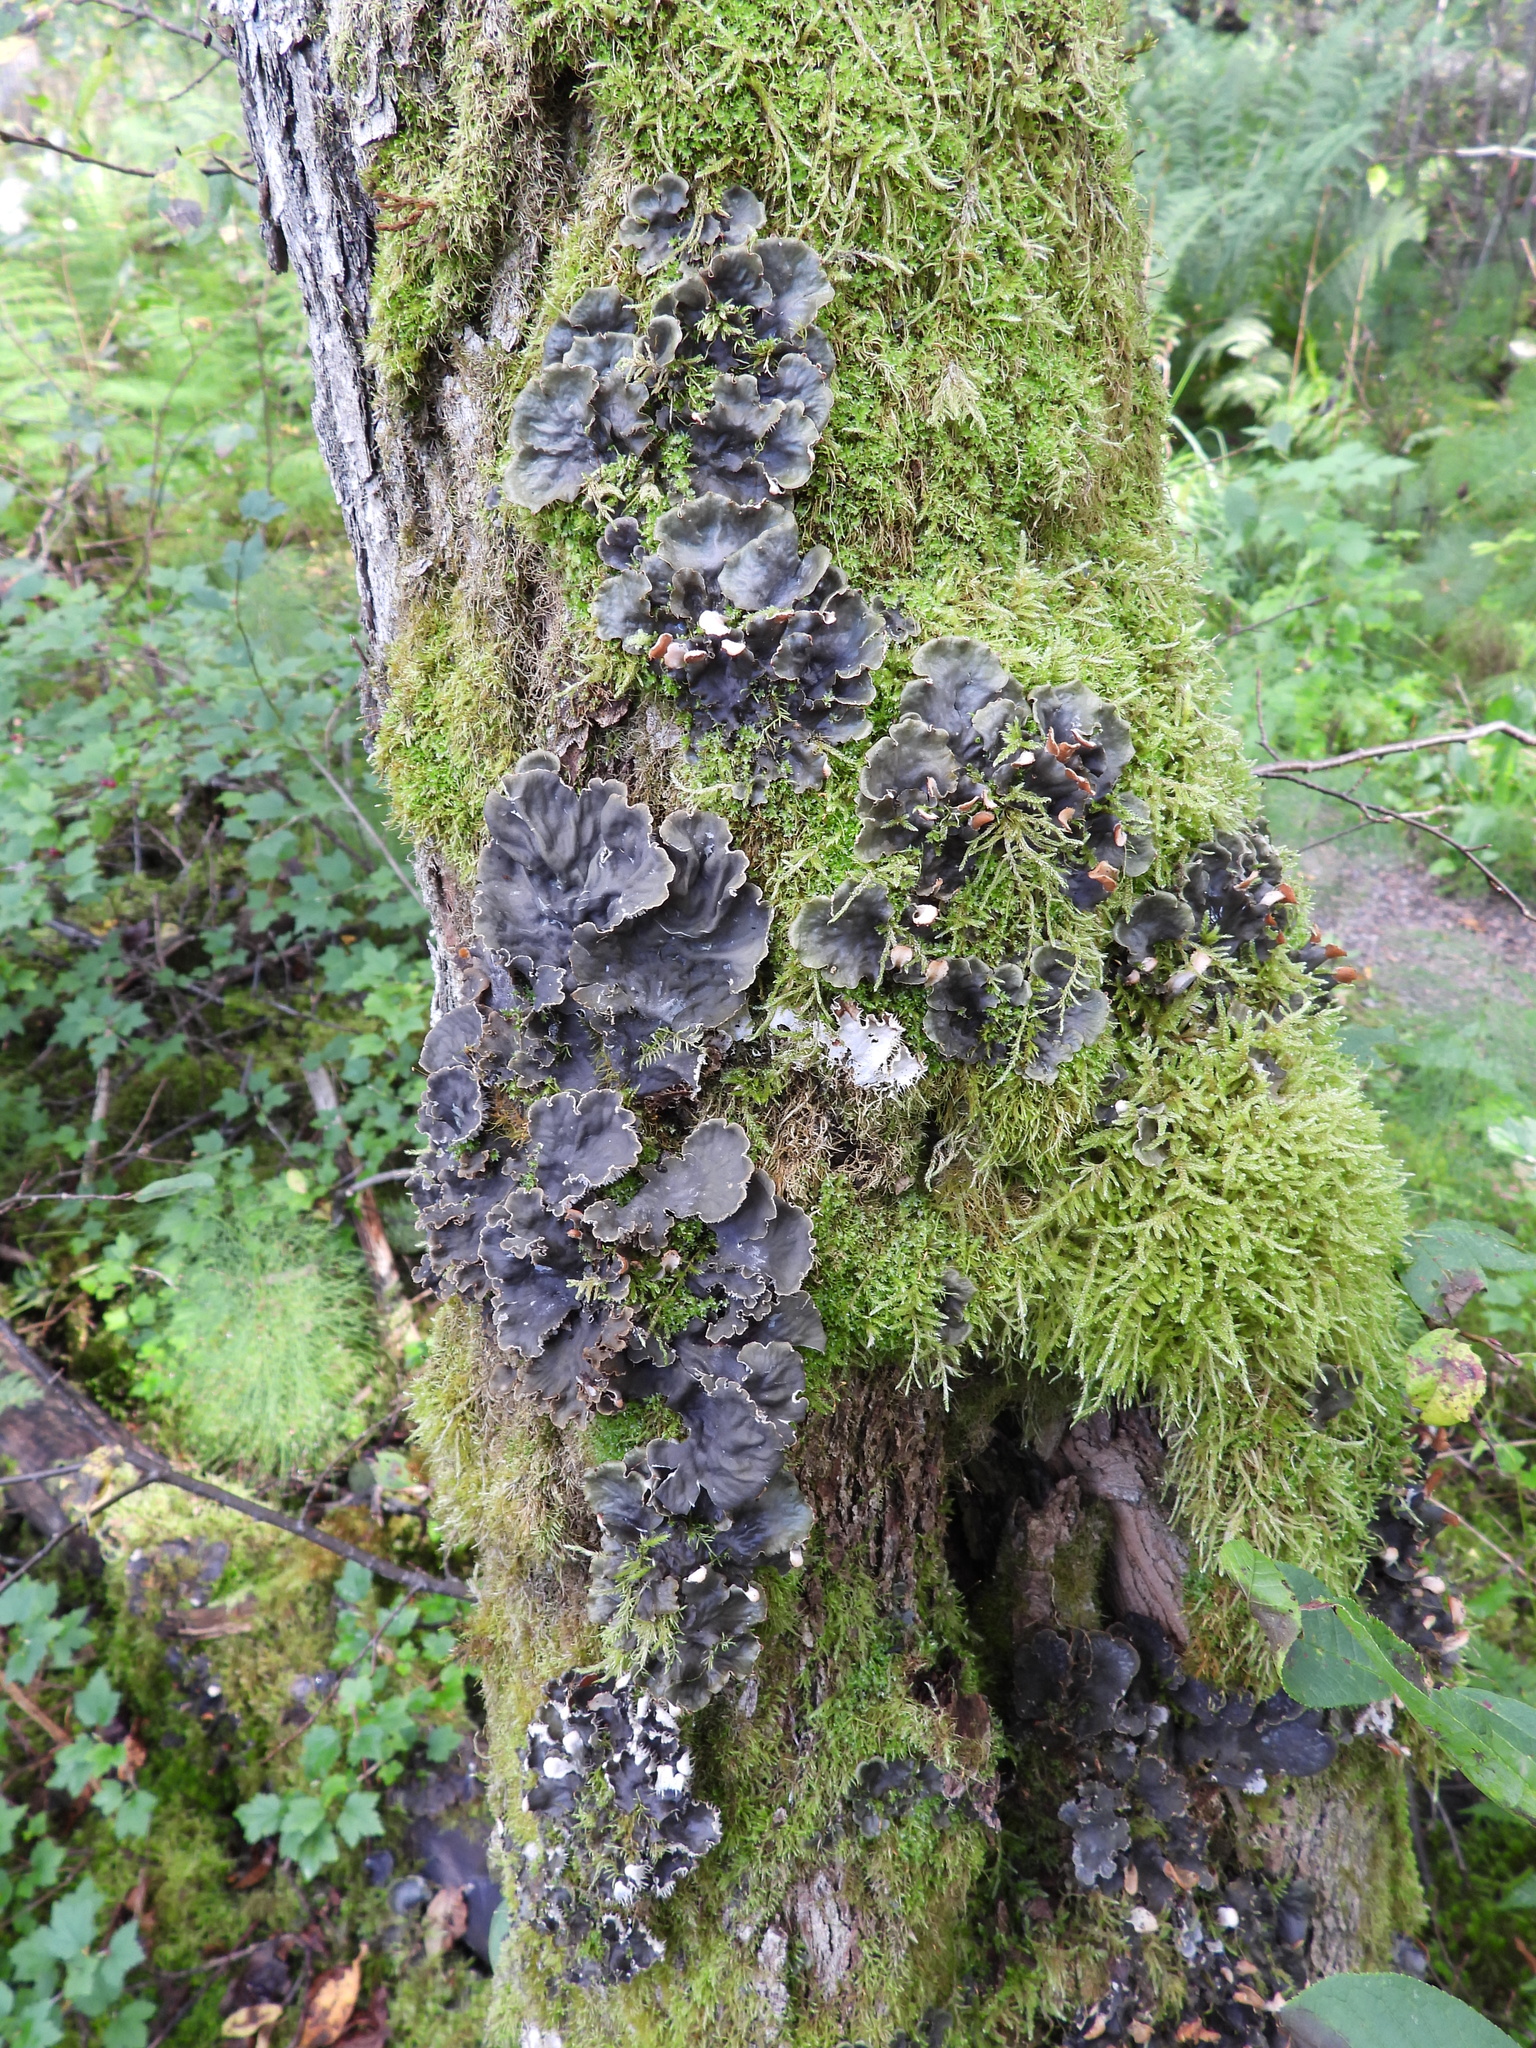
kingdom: Fungi
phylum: Ascomycota
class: Lecanoromycetes
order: Peltigerales
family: Peltigeraceae
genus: Peltigera
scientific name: Peltigera degenii
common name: Frog pelt lichen
